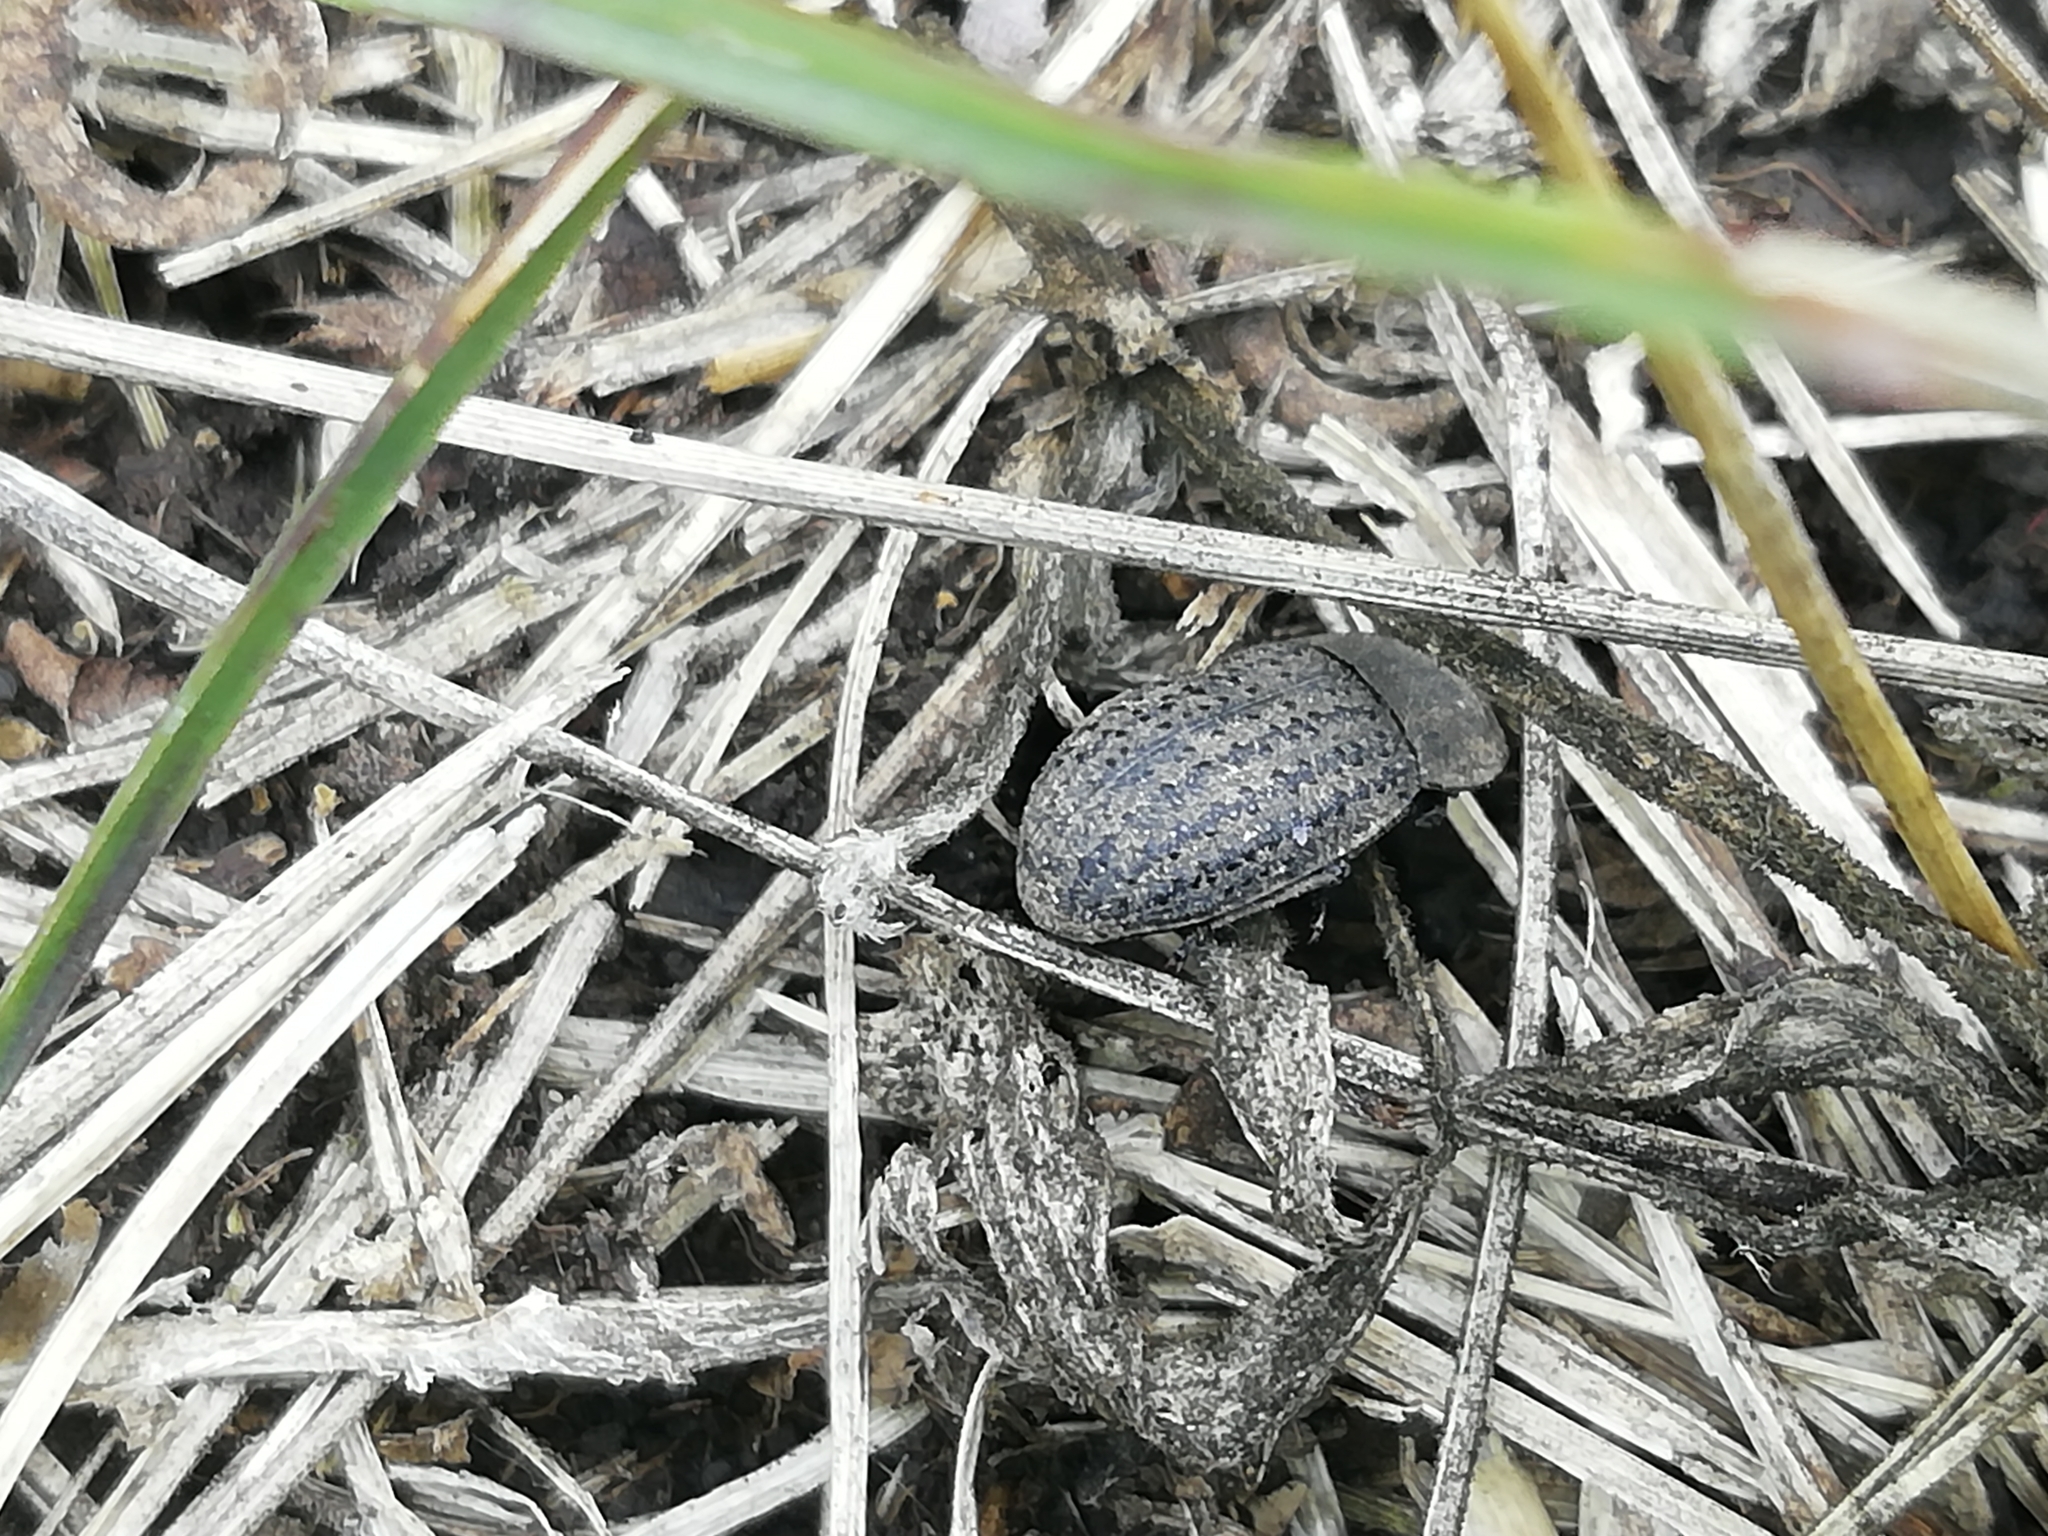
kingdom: Animalia
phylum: Arthropoda
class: Insecta
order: Coleoptera
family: Tenebrionidae
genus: Opatrum
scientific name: Opatrum sabulosum
